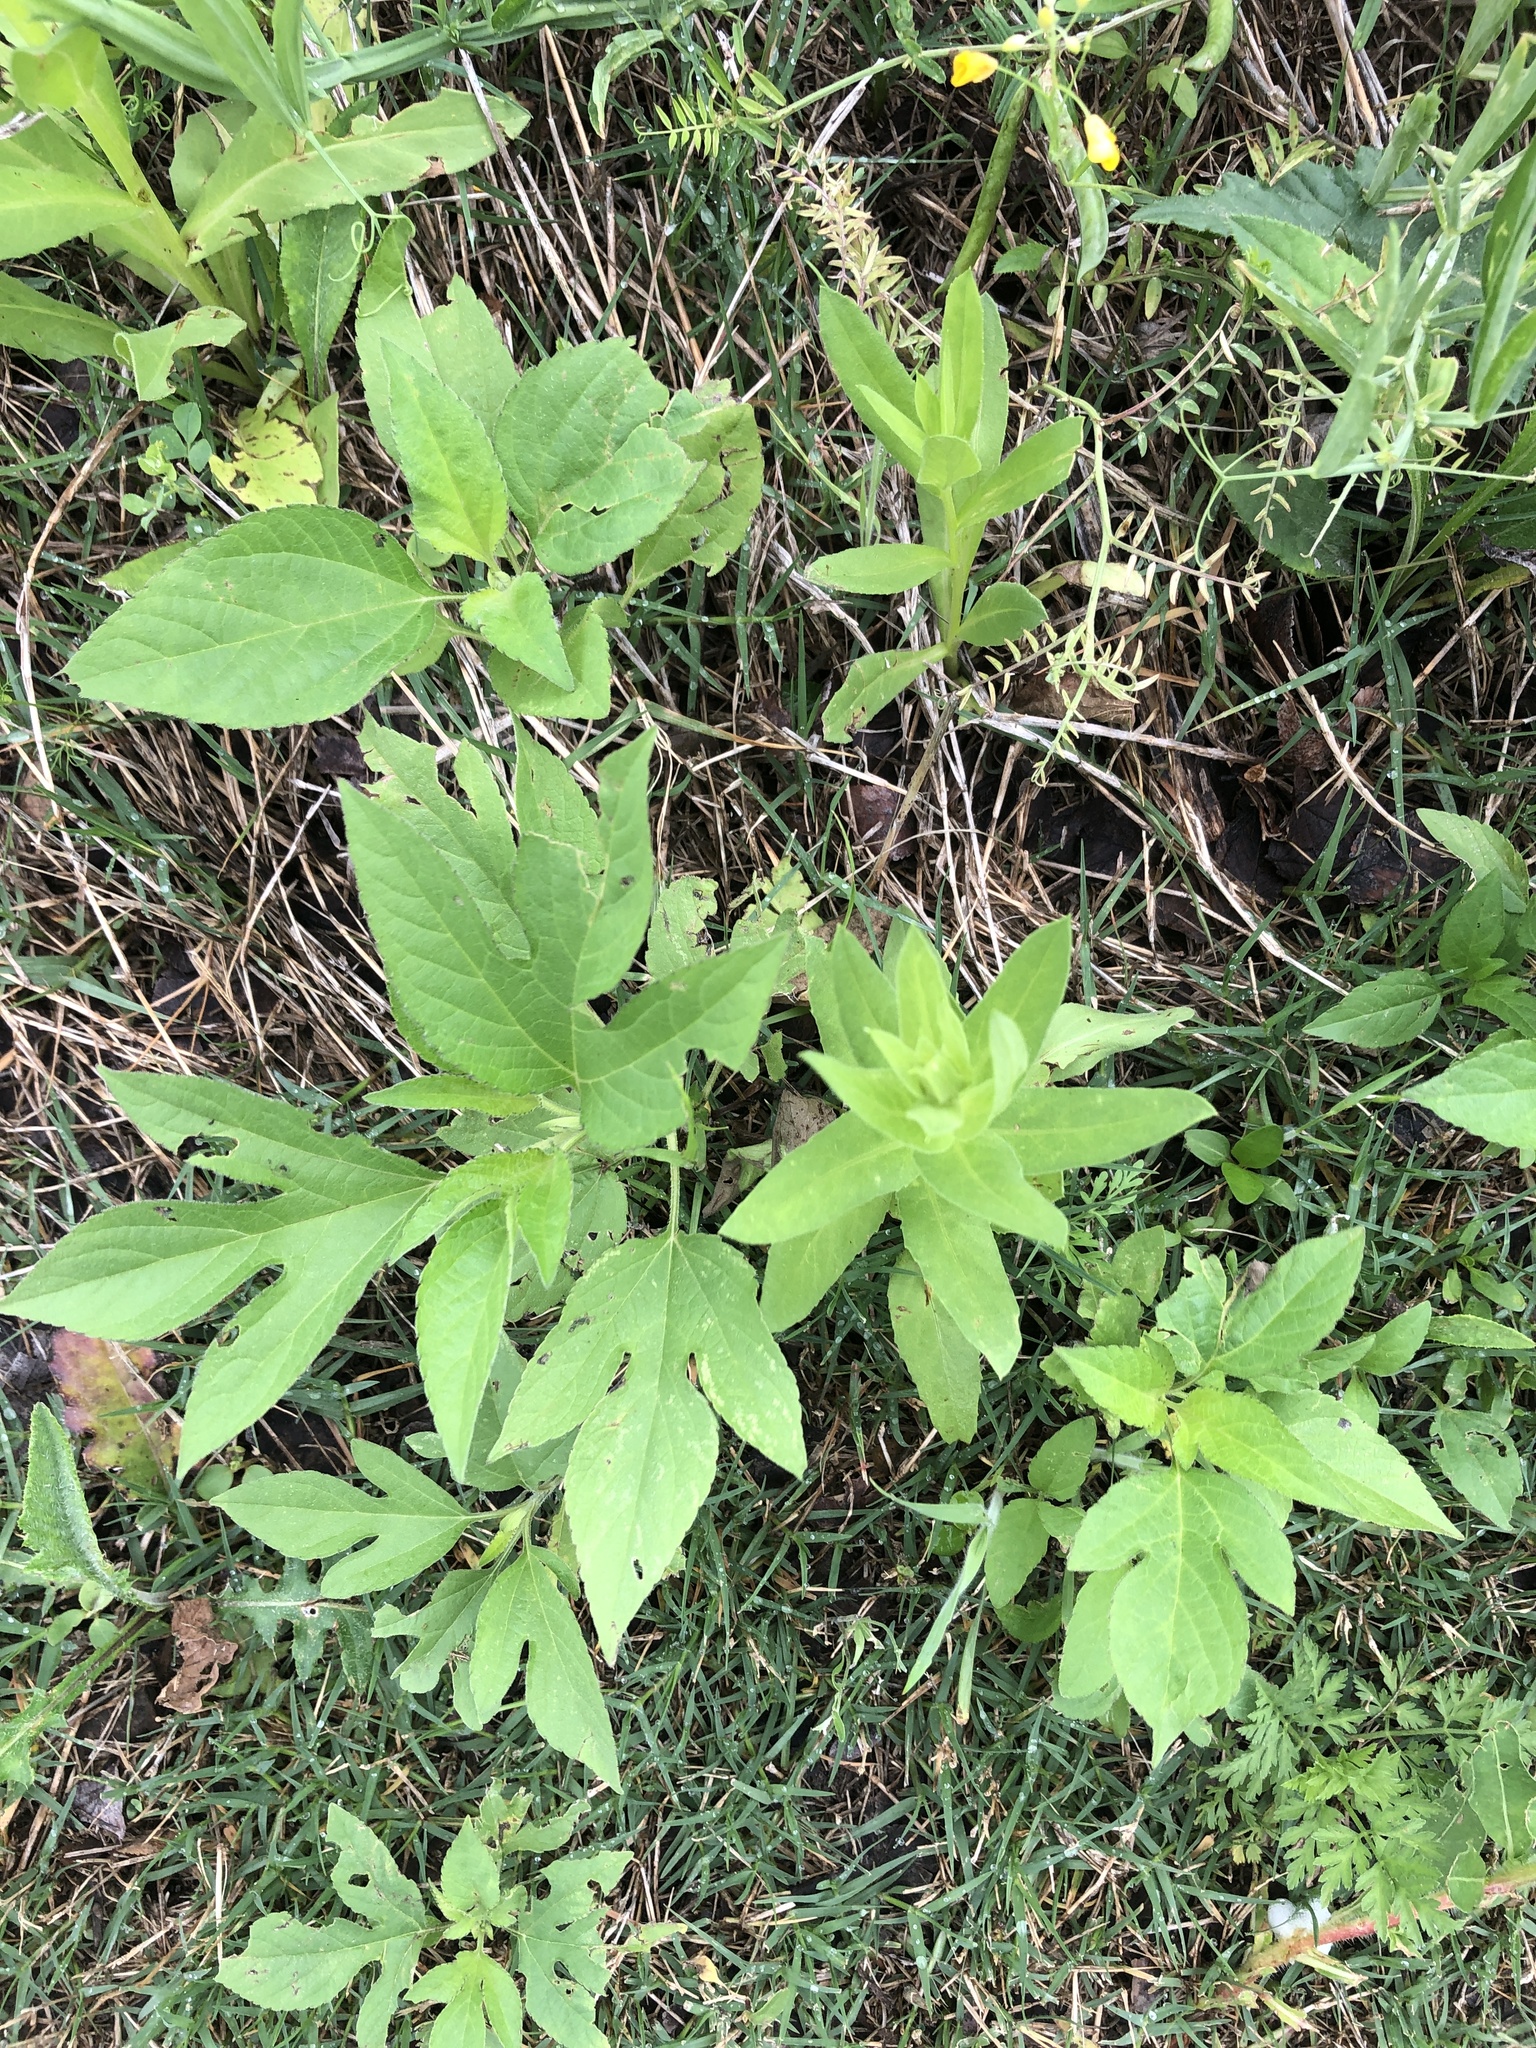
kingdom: Plantae
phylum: Tracheophyta
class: Magnoliopsida
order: Asterales
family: Asteraceae
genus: Ambrosia
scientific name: Ambrosia trifida
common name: Giant ragweed
